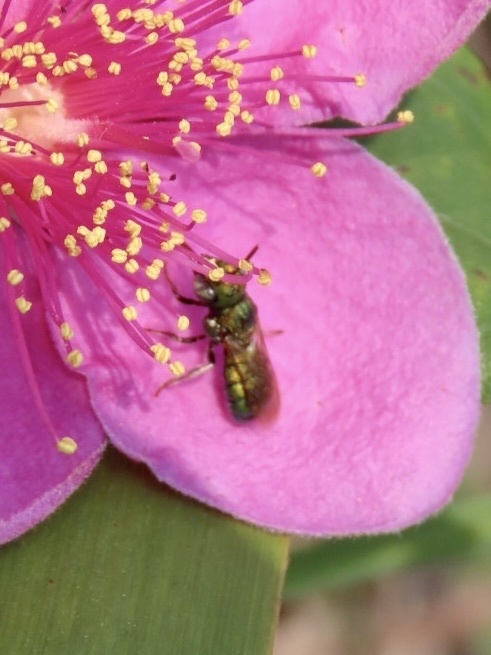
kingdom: Animalia
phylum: Arthropoda
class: Insecta
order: Hymenoptera
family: Apidae
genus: Ceratina
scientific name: Ceratina smaragdula
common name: Small carpenter bee
